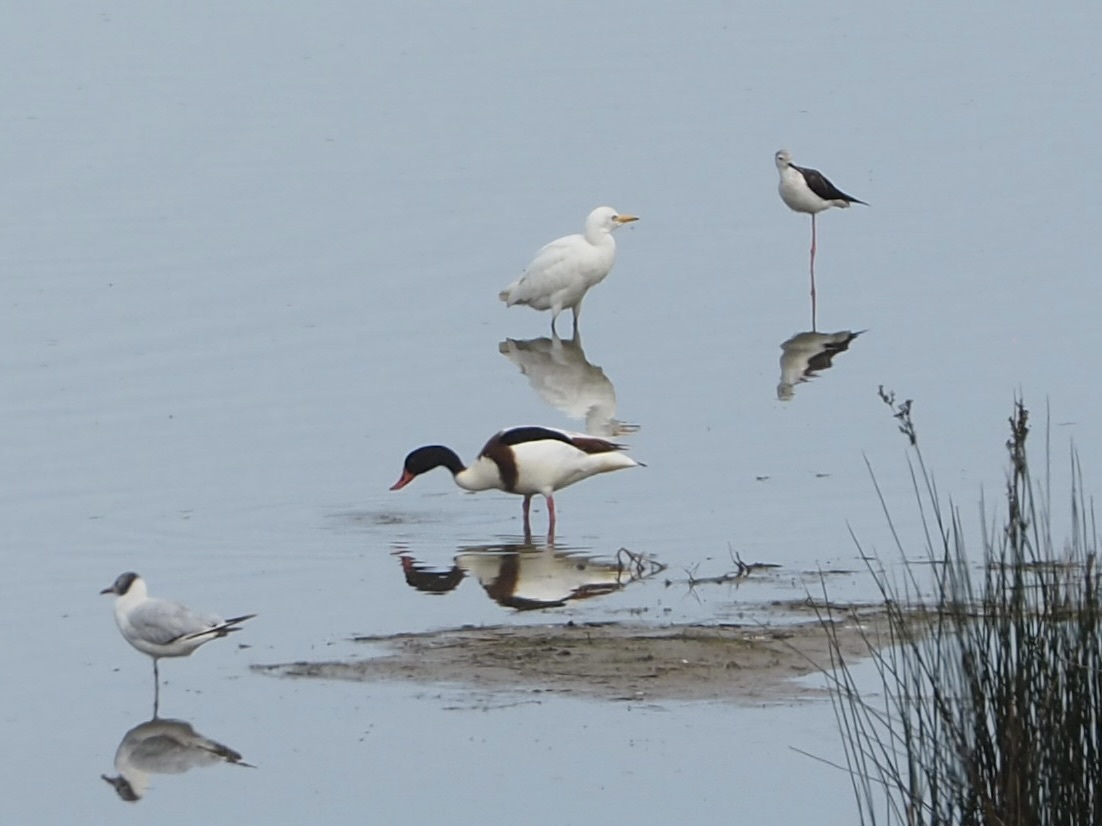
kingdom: Animalia
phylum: Chordata
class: Aves
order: Anseriformes
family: Anatidae
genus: Tadorna
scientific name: Tadorna tadorna
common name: Common shelduck
